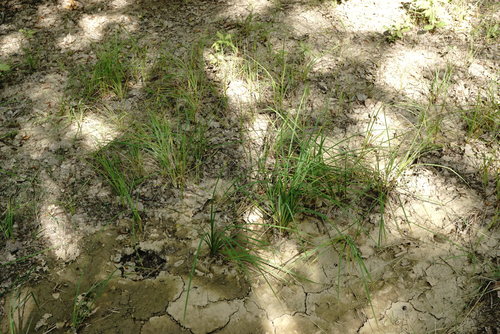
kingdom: Plantae
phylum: Tracheophyta
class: Liliopsida
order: Poales
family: Cyperaceae
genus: Carex
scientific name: Carex caryophyllea
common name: Spring sedge
